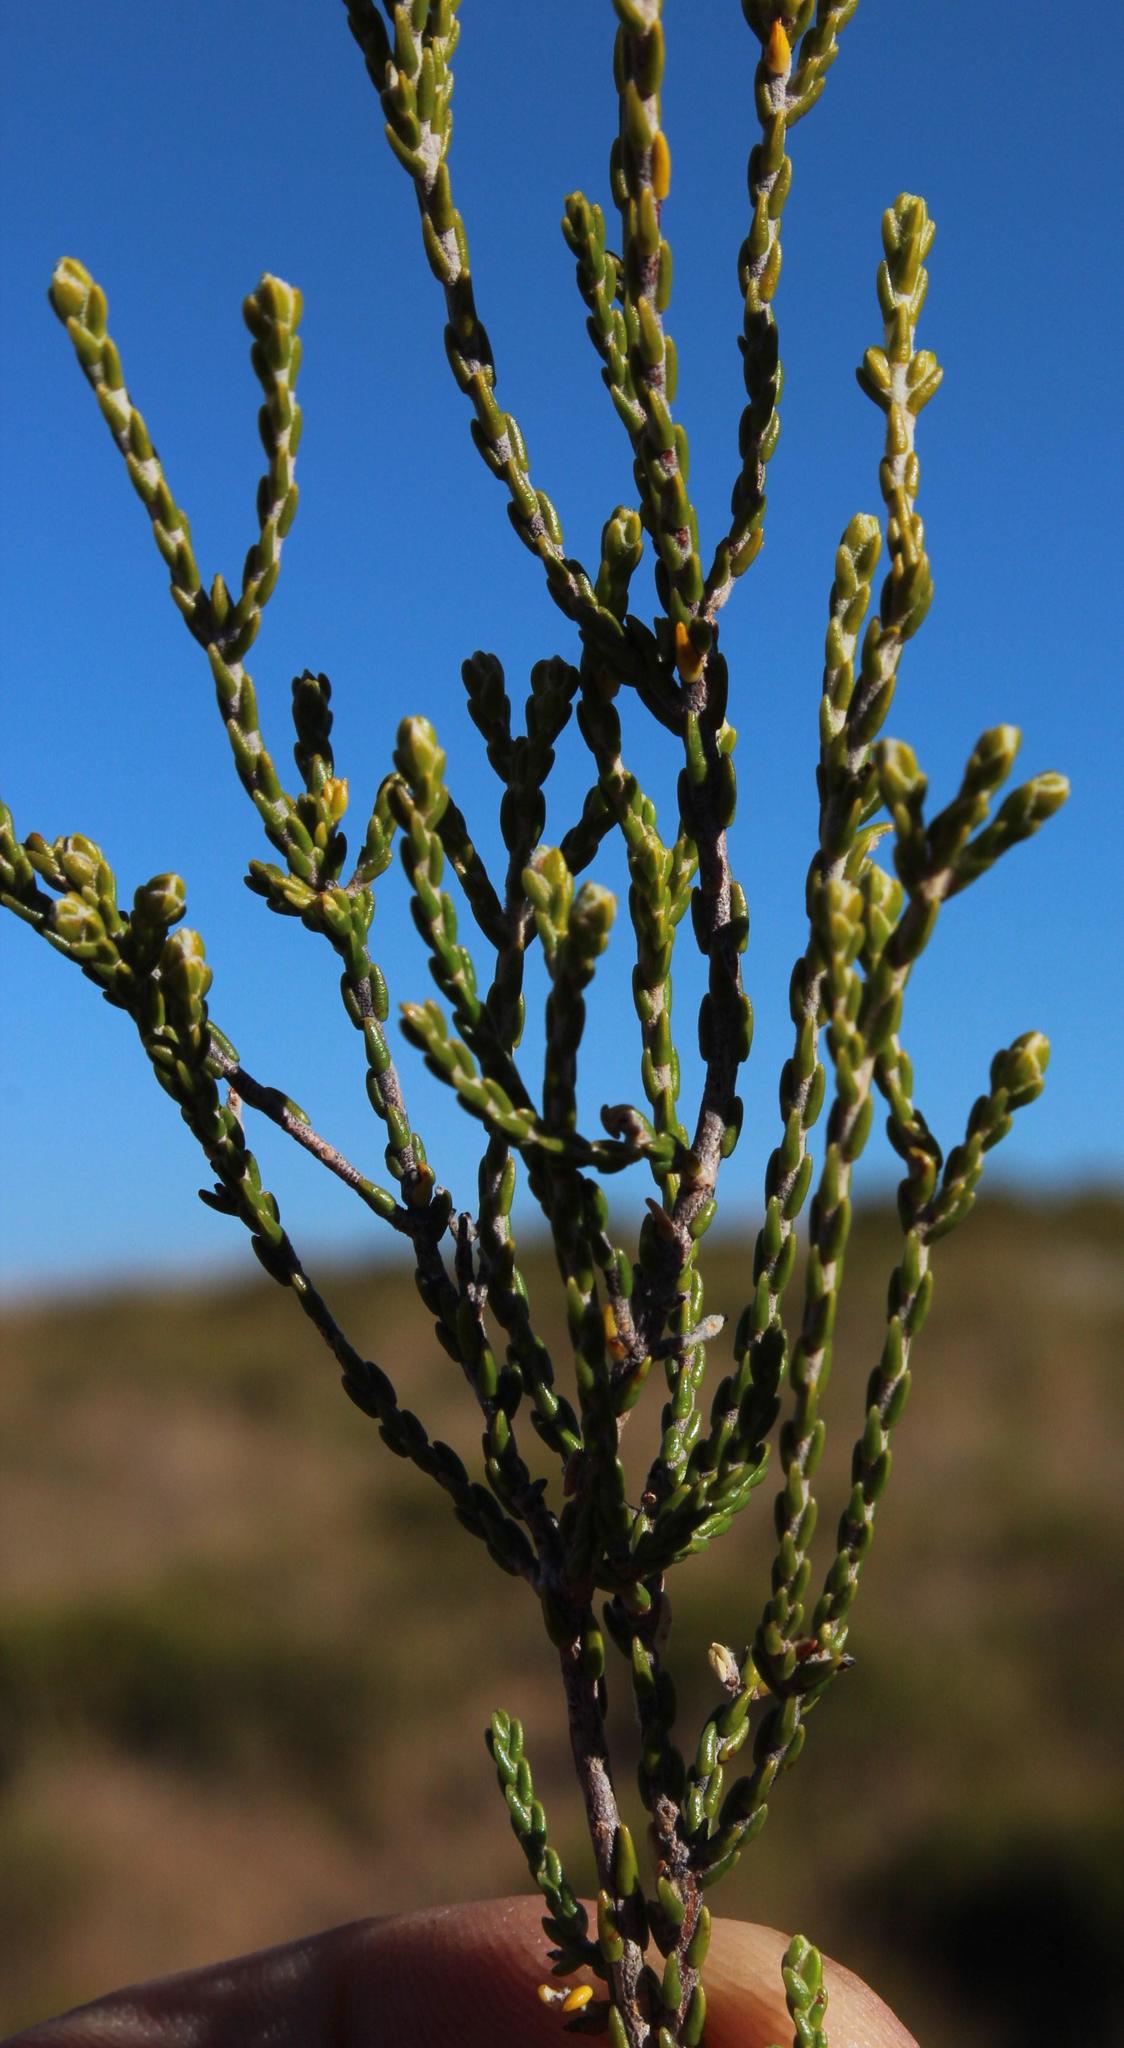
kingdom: Plantae
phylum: Tracheophyta
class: Magnoliopsida
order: Malvales
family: Thymelaeaceae
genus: Passerina
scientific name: Passerina montana
